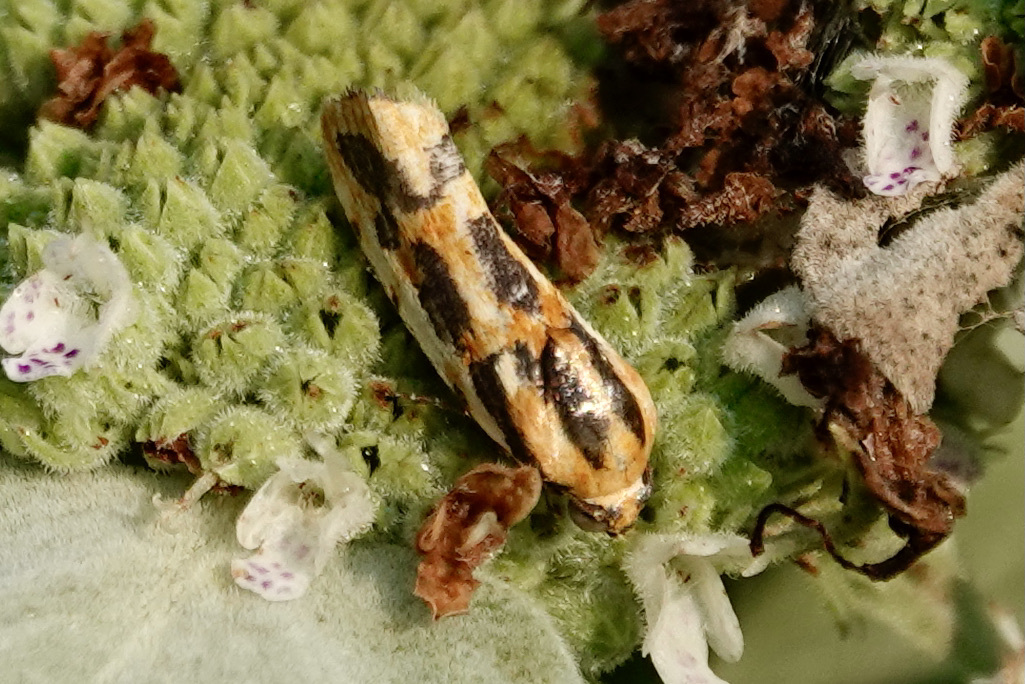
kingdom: Animalia
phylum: Arthropoda
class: Insecta
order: Lepidoptera
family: Noctuidae
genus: Acontia
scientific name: Acontia leo
